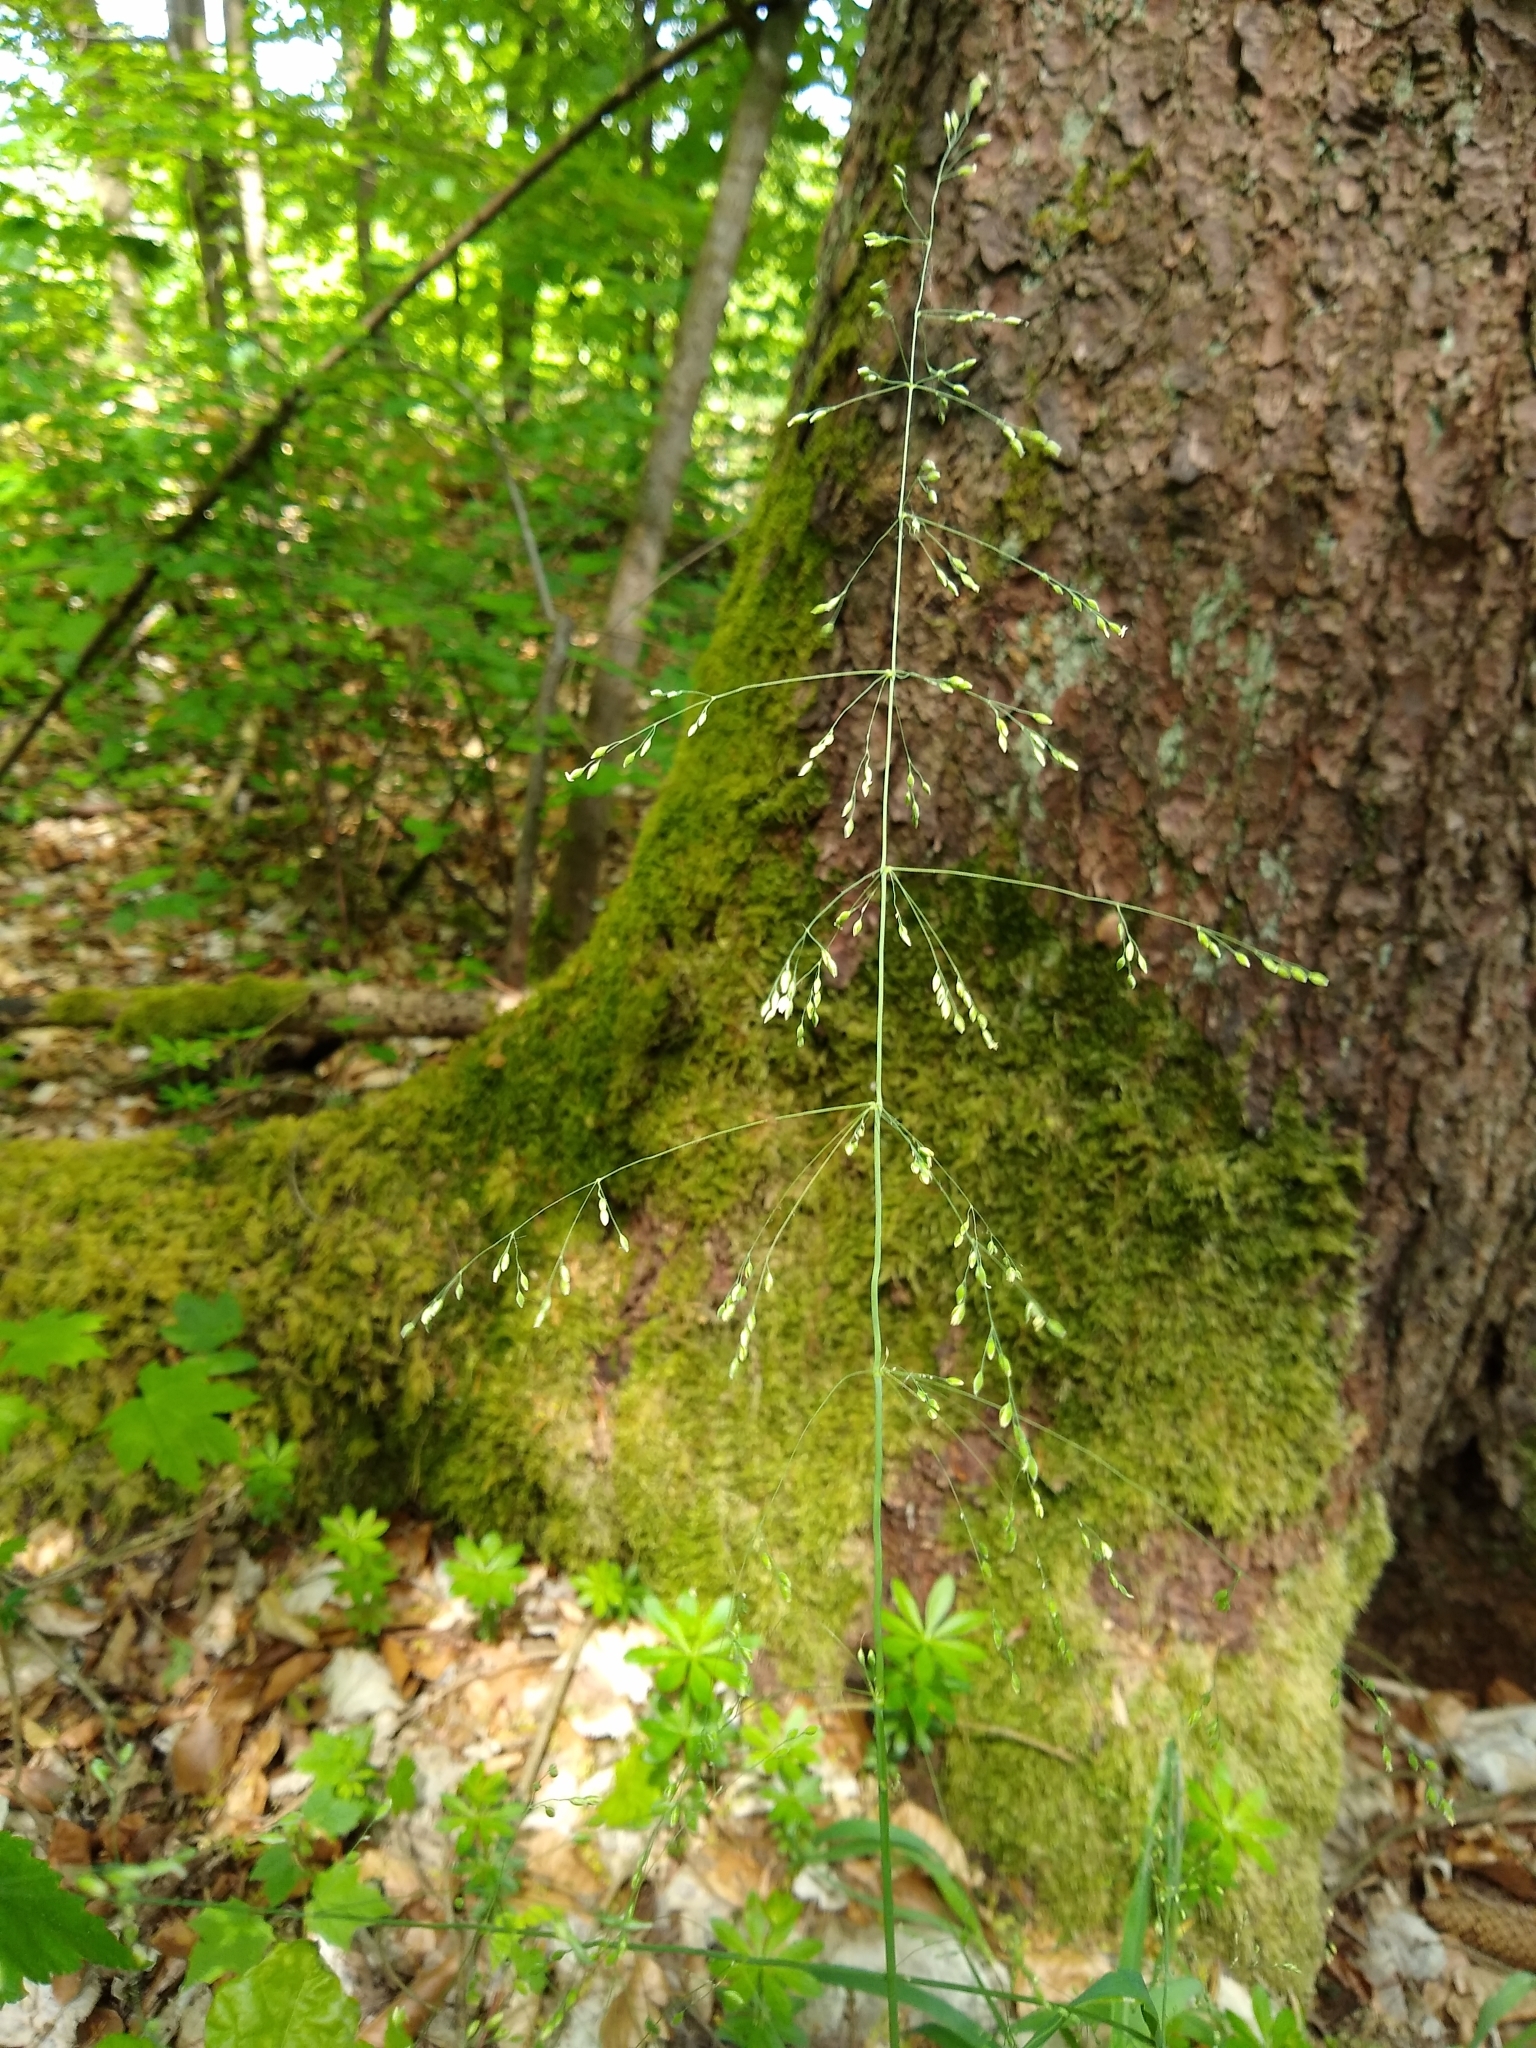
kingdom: Plantae
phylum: Tracheophyta
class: Liliopsida
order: Poales
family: Poaceae
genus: Milium
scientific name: Milium effusum
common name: Wood millet
